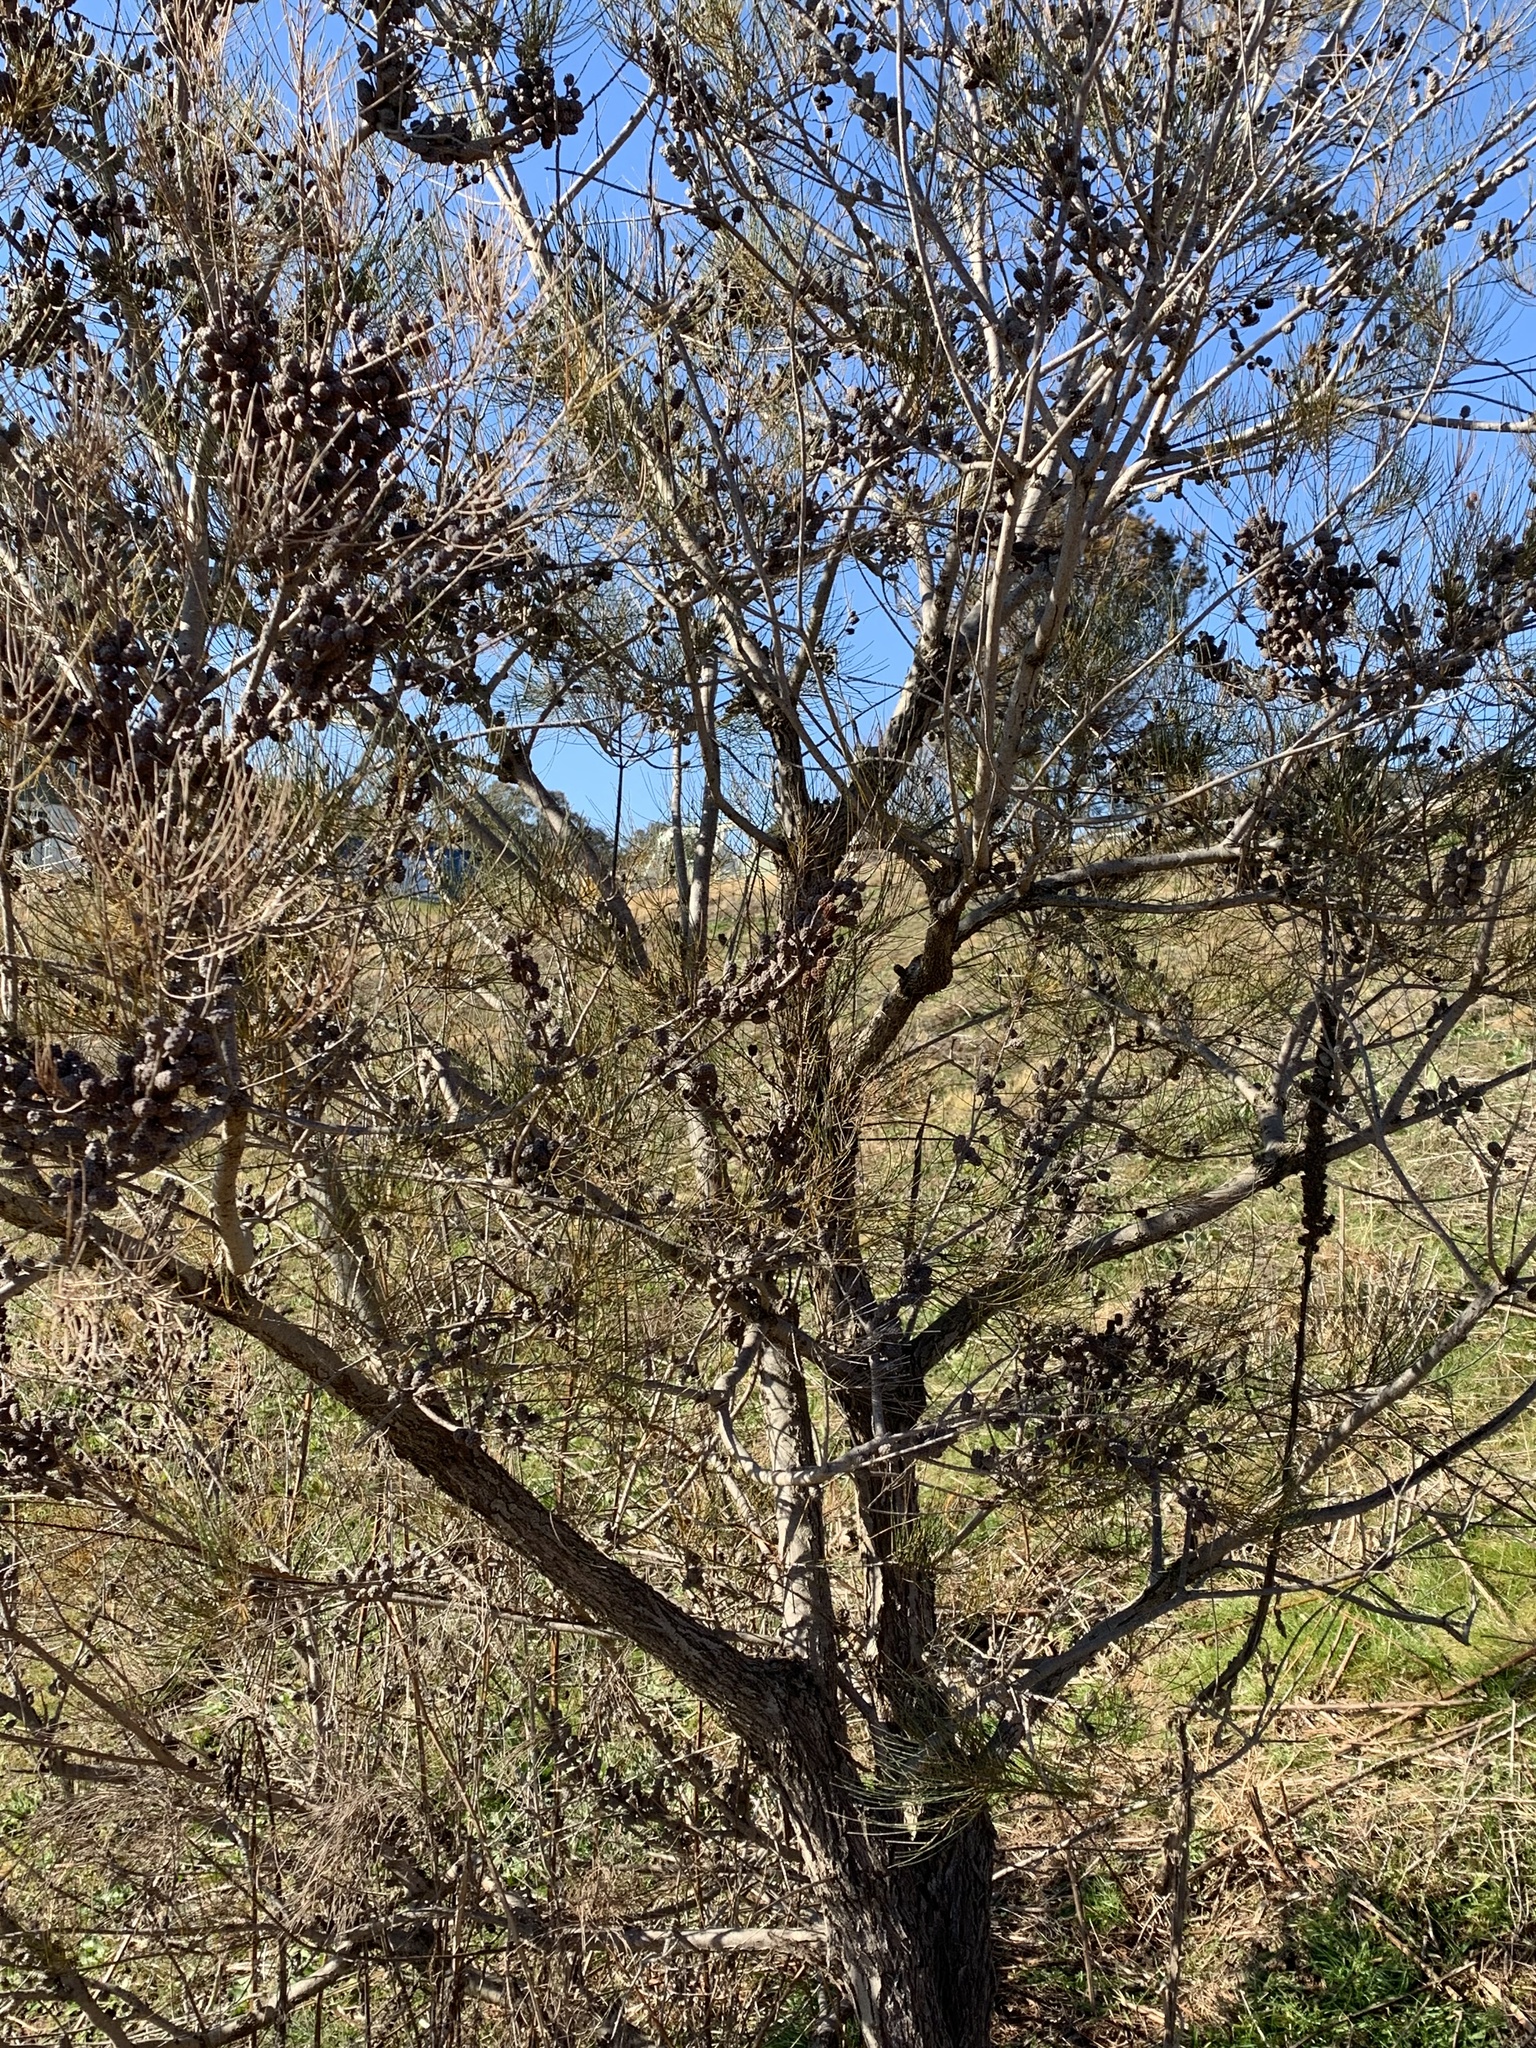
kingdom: Plantae
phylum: Tracheophyta
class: Magnoliopsida
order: Fagales
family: Casuarinaceae
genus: Allocasuarina
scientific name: Allocasuarina littoralis
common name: Black she-oak
